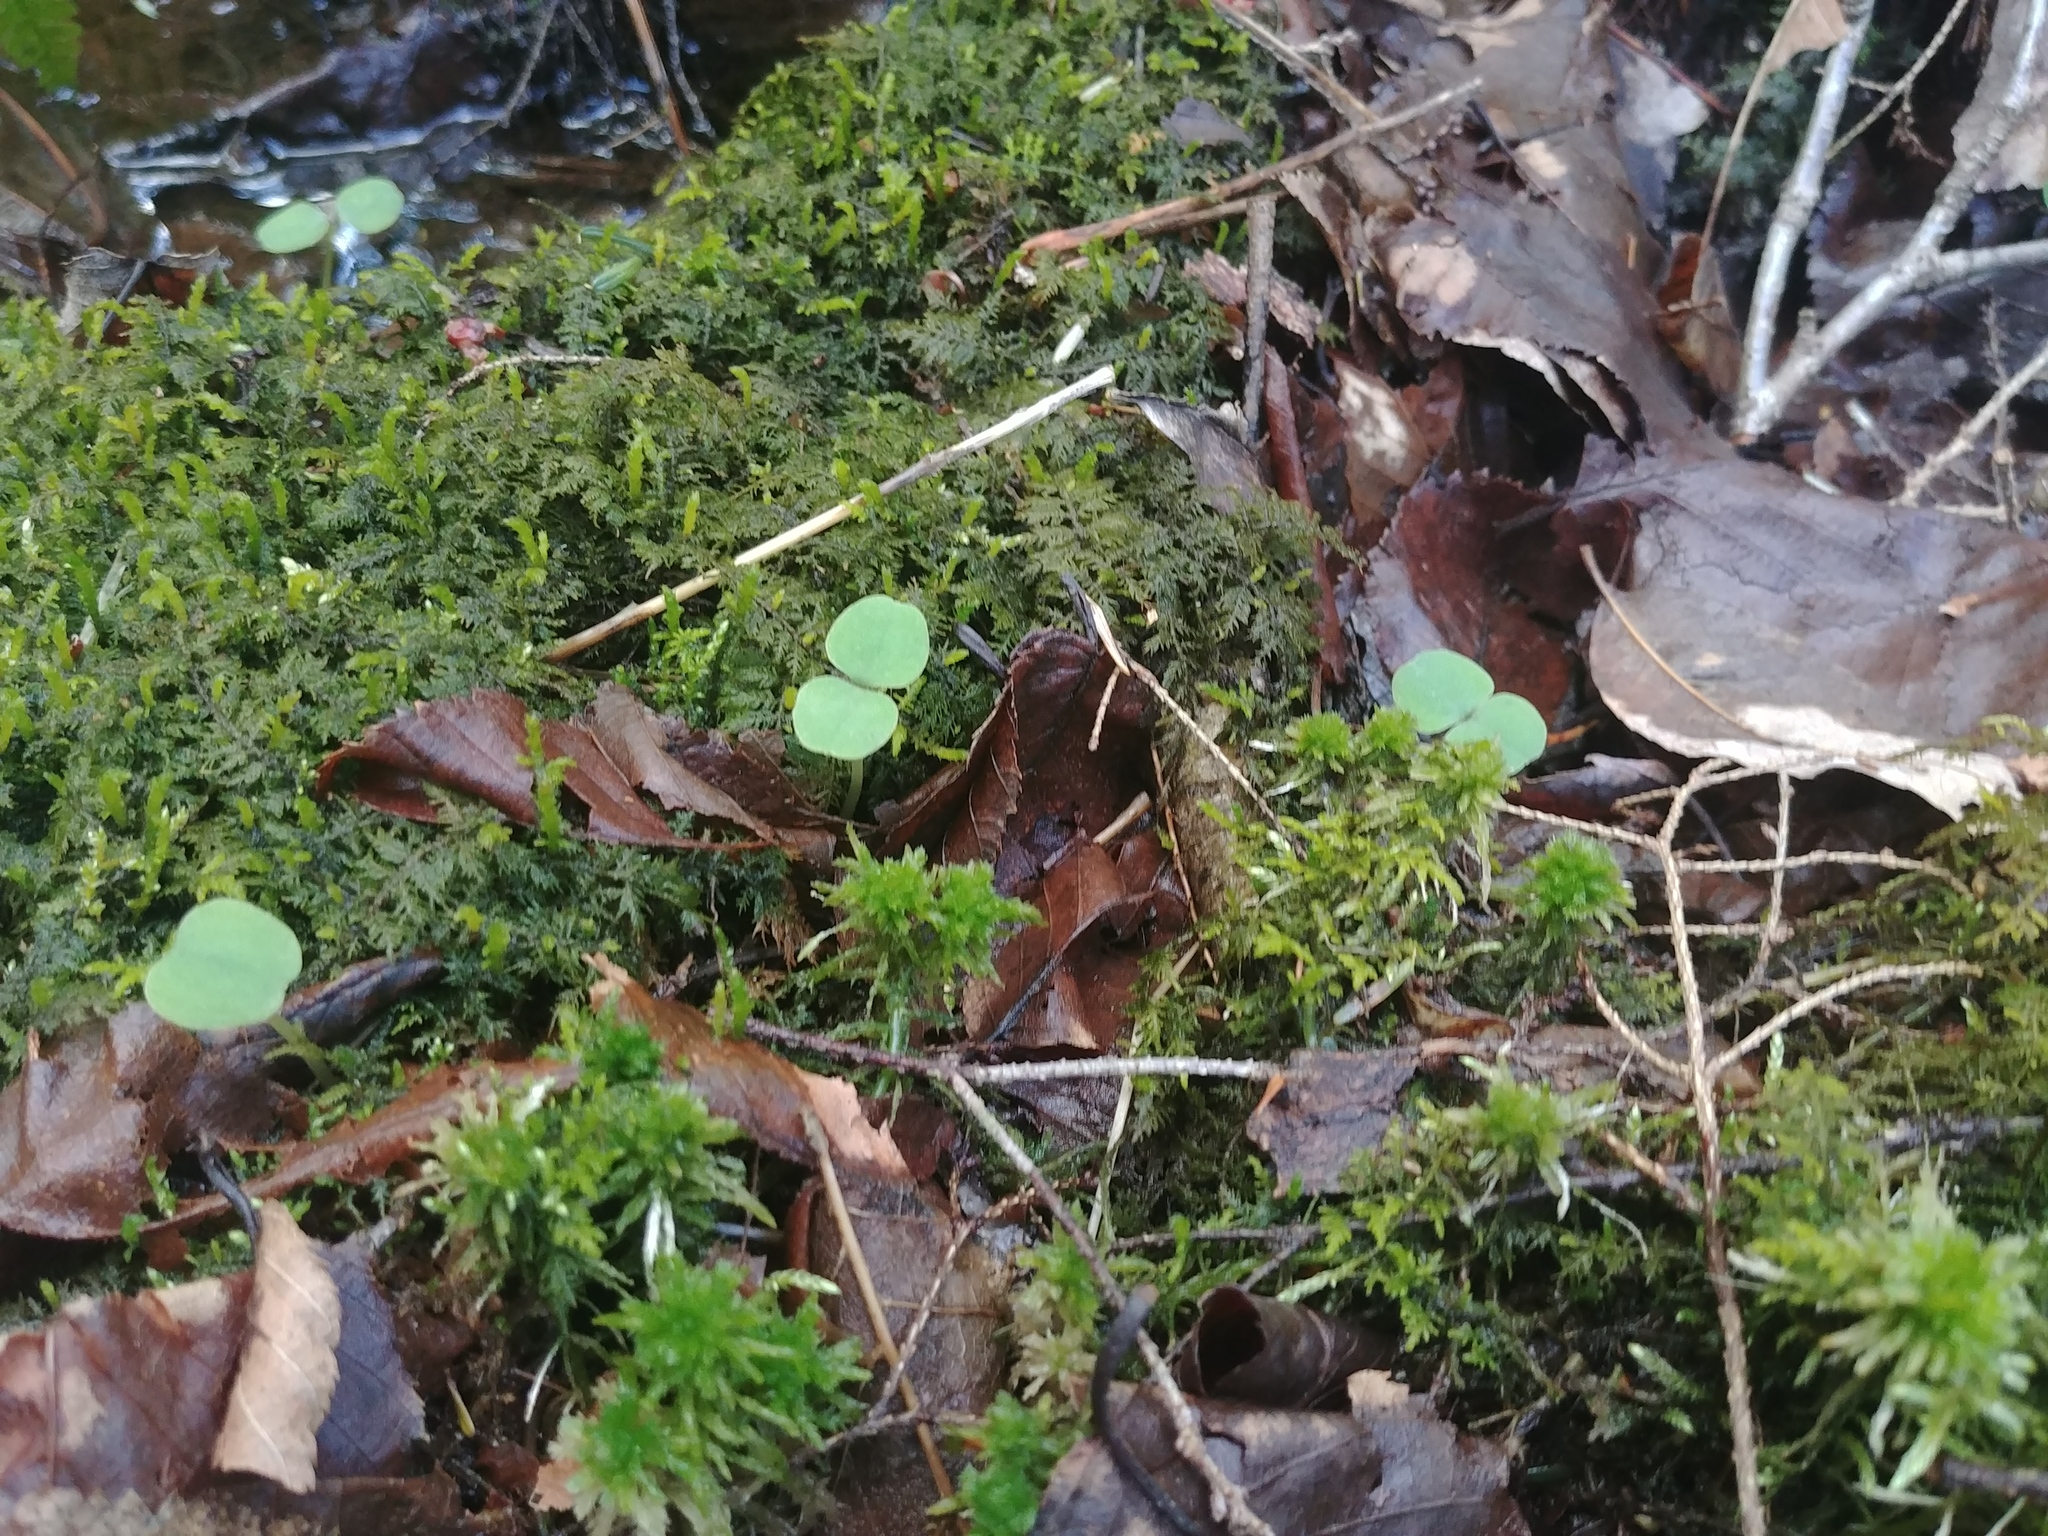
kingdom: Plantae
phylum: Tracheophyta
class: Magnoliopsida
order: Ericales
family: Balsaminaceae
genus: Impatiens
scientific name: Impatiens
